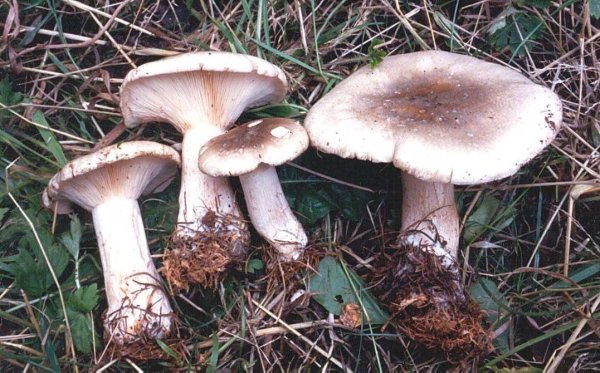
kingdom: Fungi
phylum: Basidiomycota
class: Agaricomycetes
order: Agaricales
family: Tricholomataceae
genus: Clitocybe
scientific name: Clitocybe nebularis
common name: Clouded agaric
